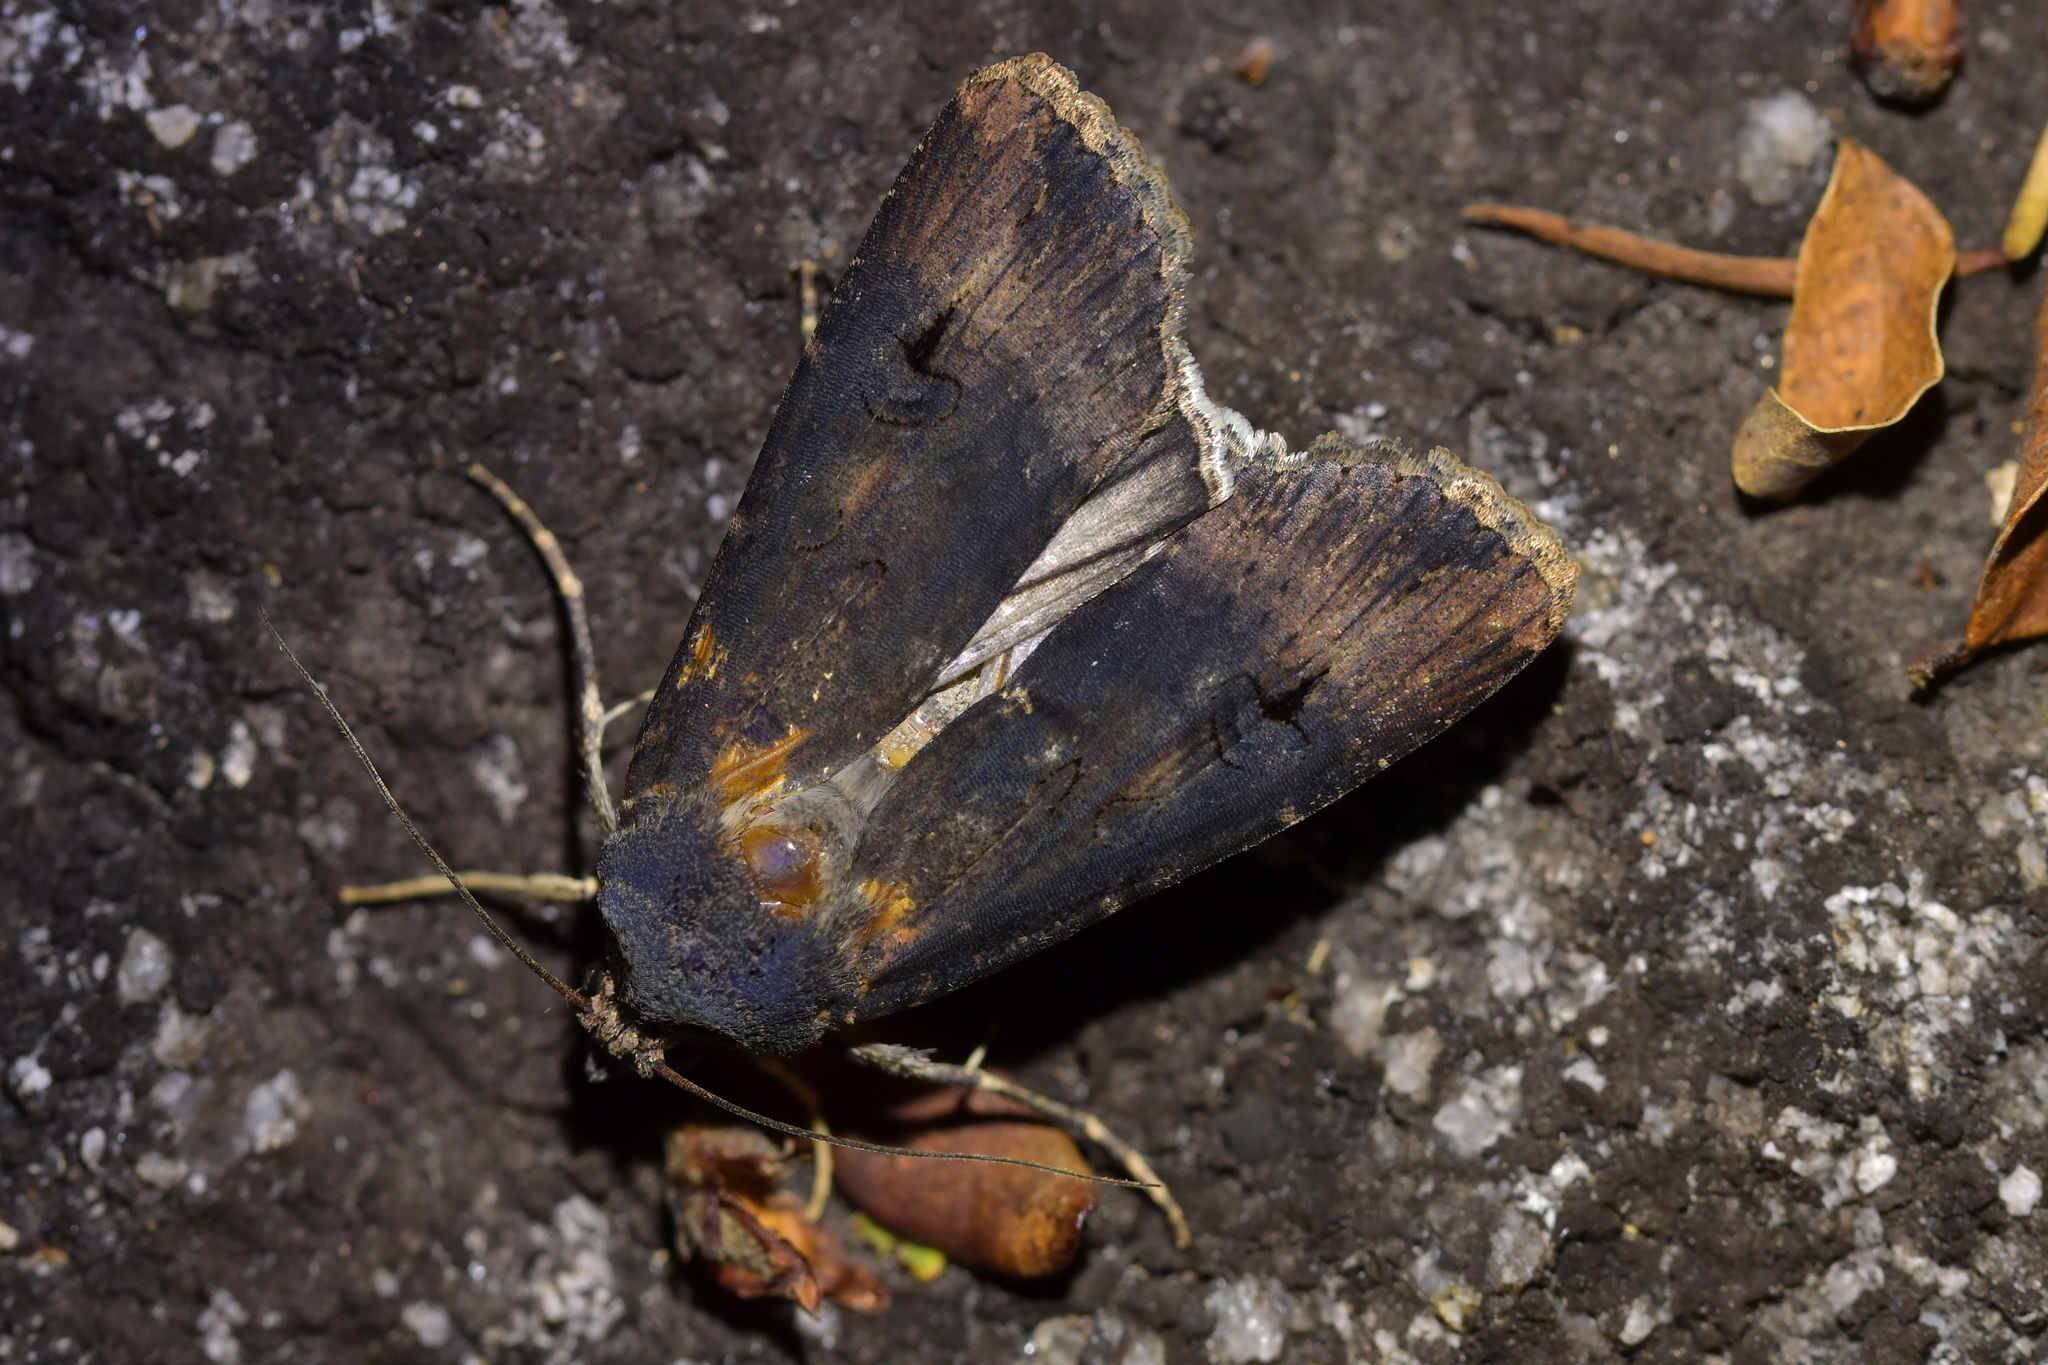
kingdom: Animalia
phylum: Arthropoda
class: Insecta
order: Lepidoptera
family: Noctuidae
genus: Agrotis
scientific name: Agrotis ipsilon
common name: Dark sword-grass
